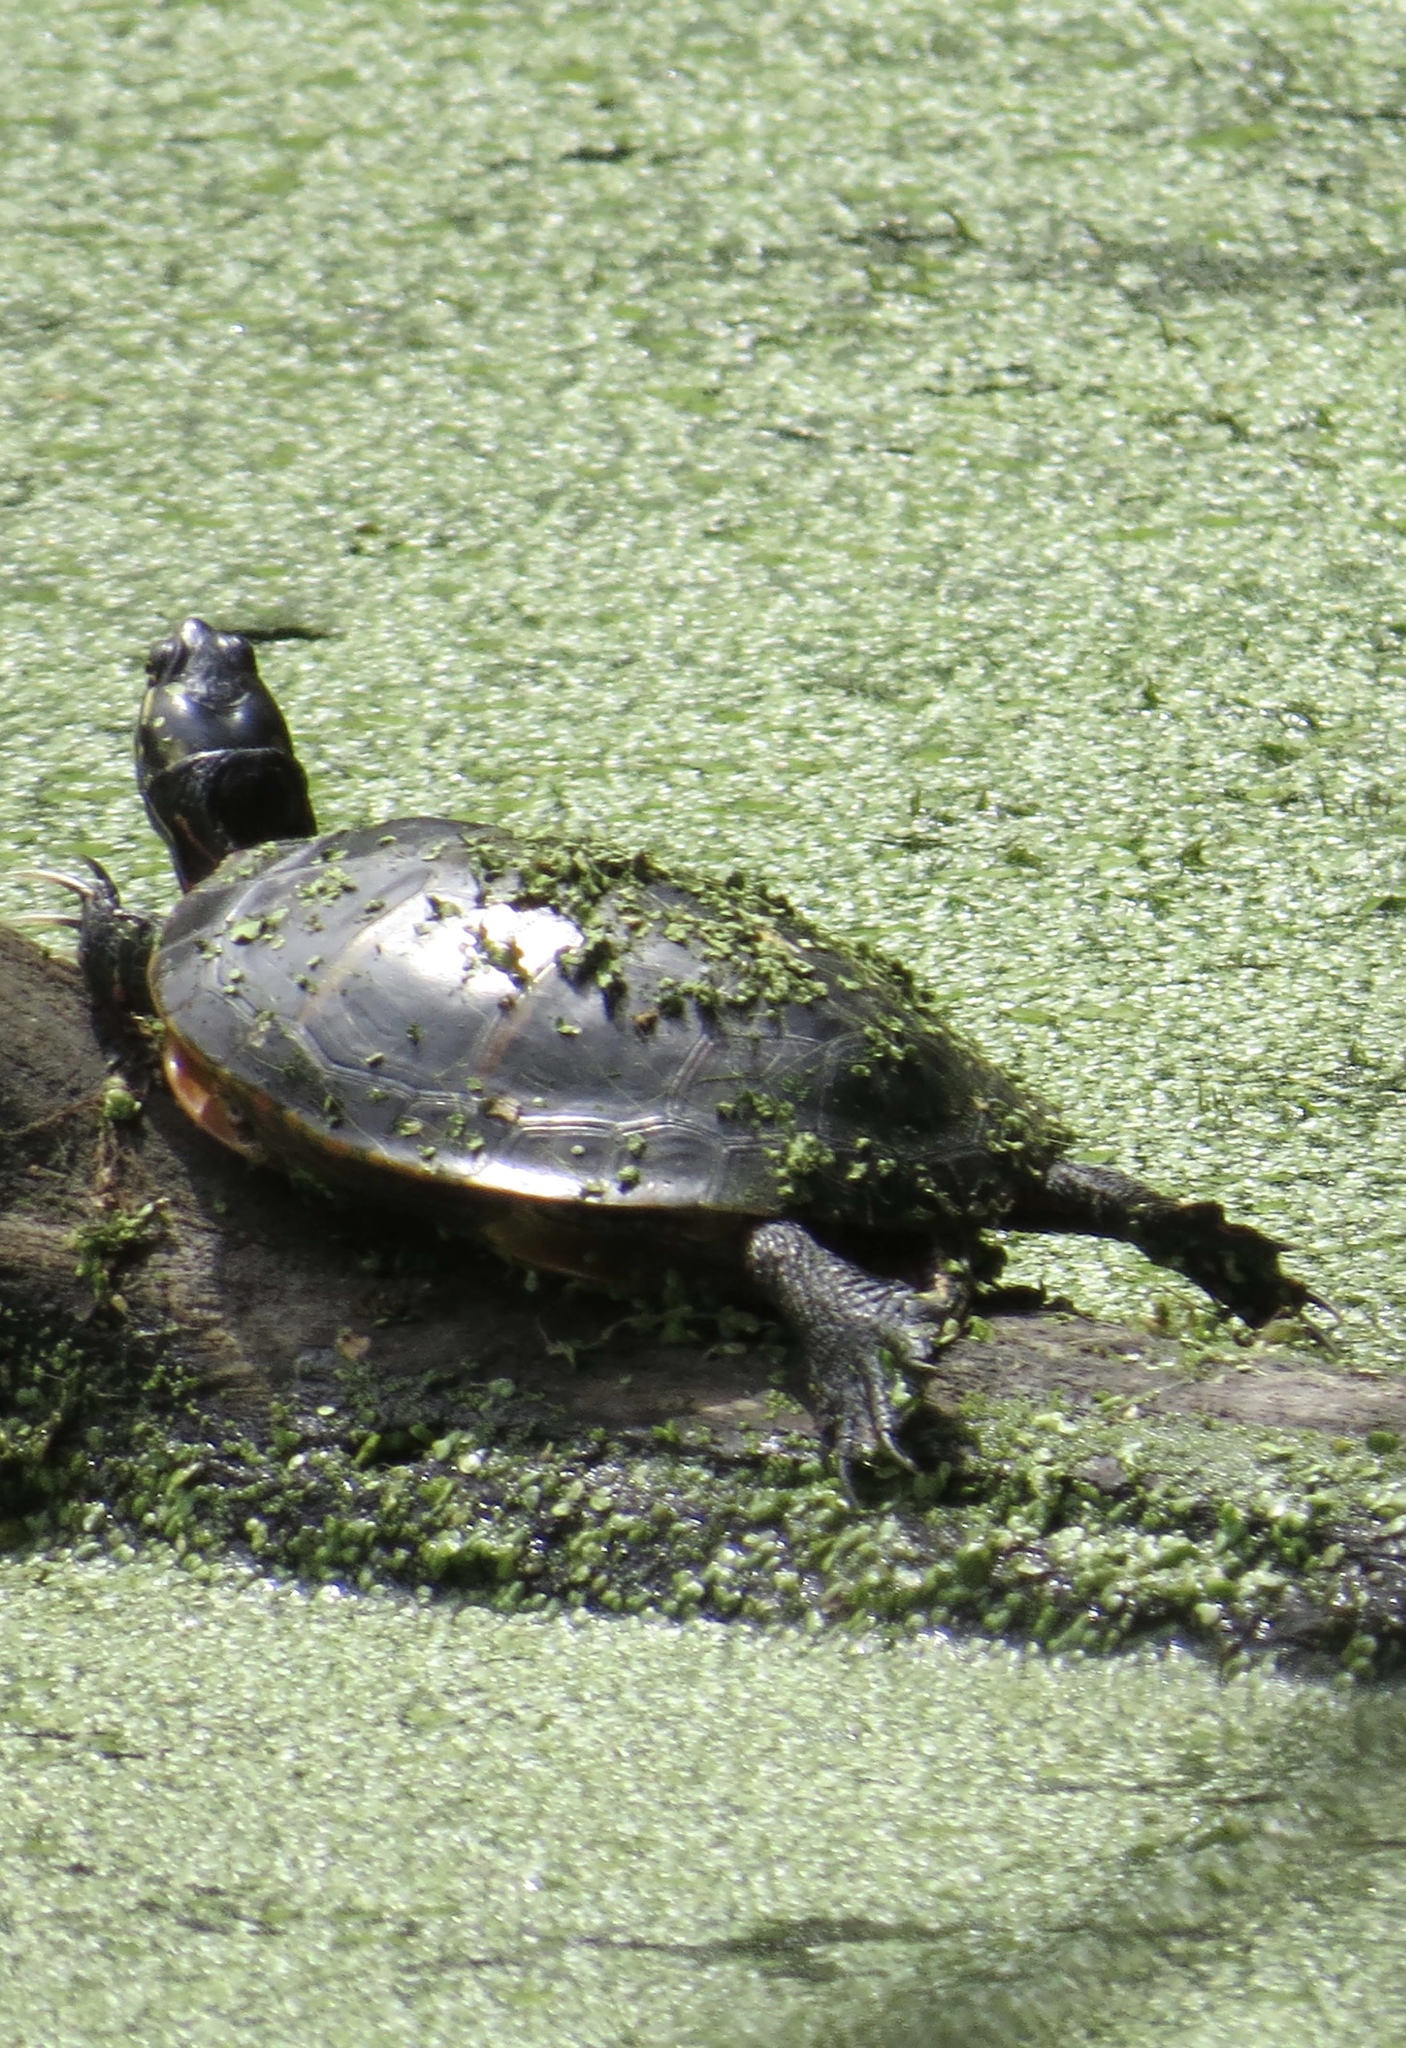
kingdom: Animalia
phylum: Chordata
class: Testudines
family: Emydidae
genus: Chrysemys
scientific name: Chrysemys picta
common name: Painted turtle
